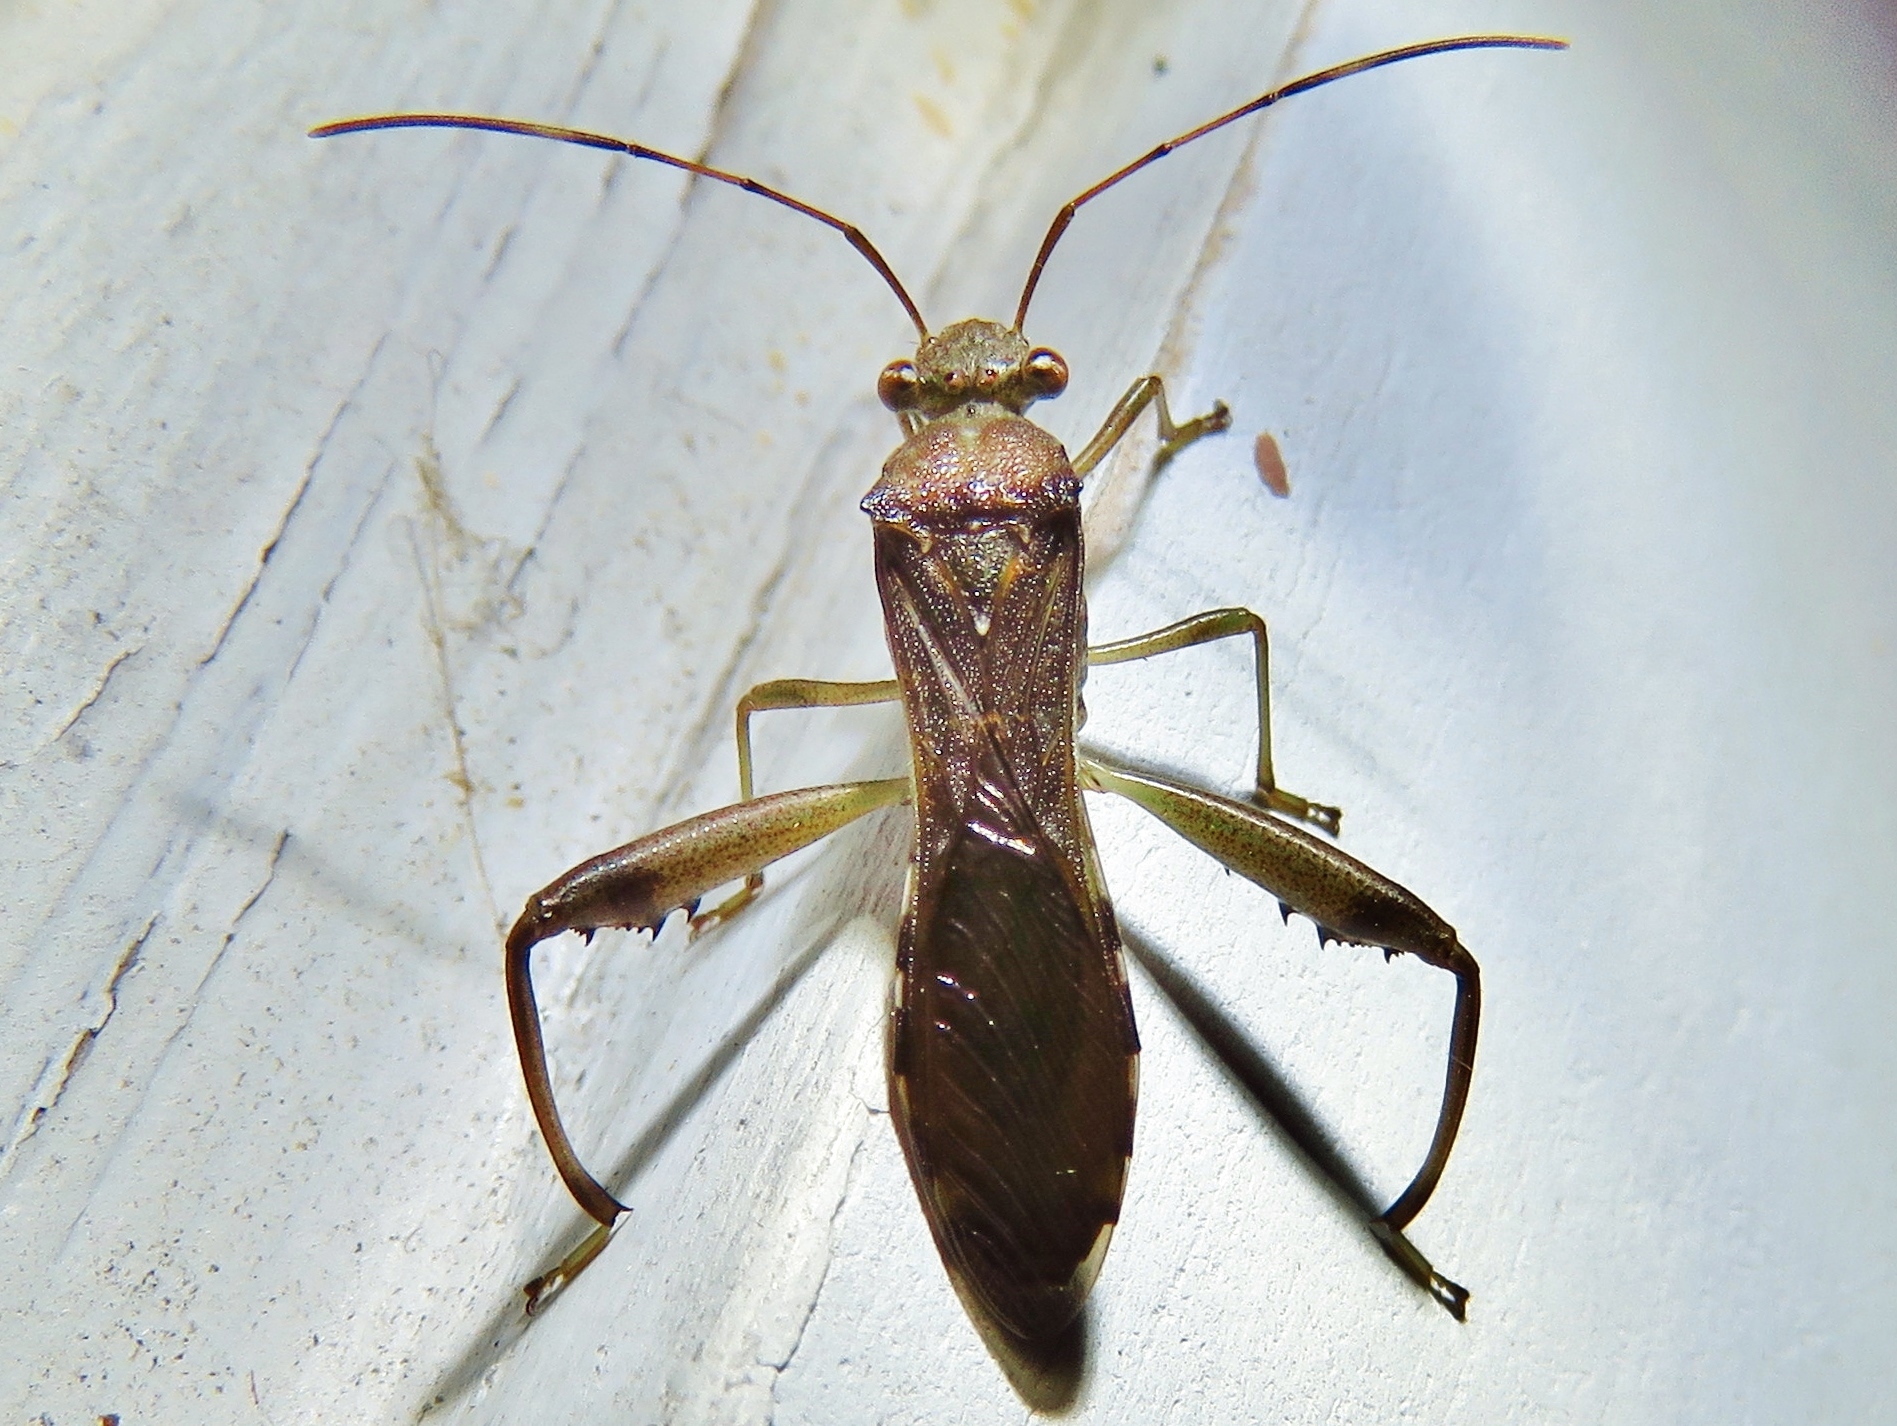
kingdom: Animalia
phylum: Arthropoda
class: Insecta
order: Hemiptera
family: Alydidae
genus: Hyalymenus
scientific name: Hyalymenus tarsatus
